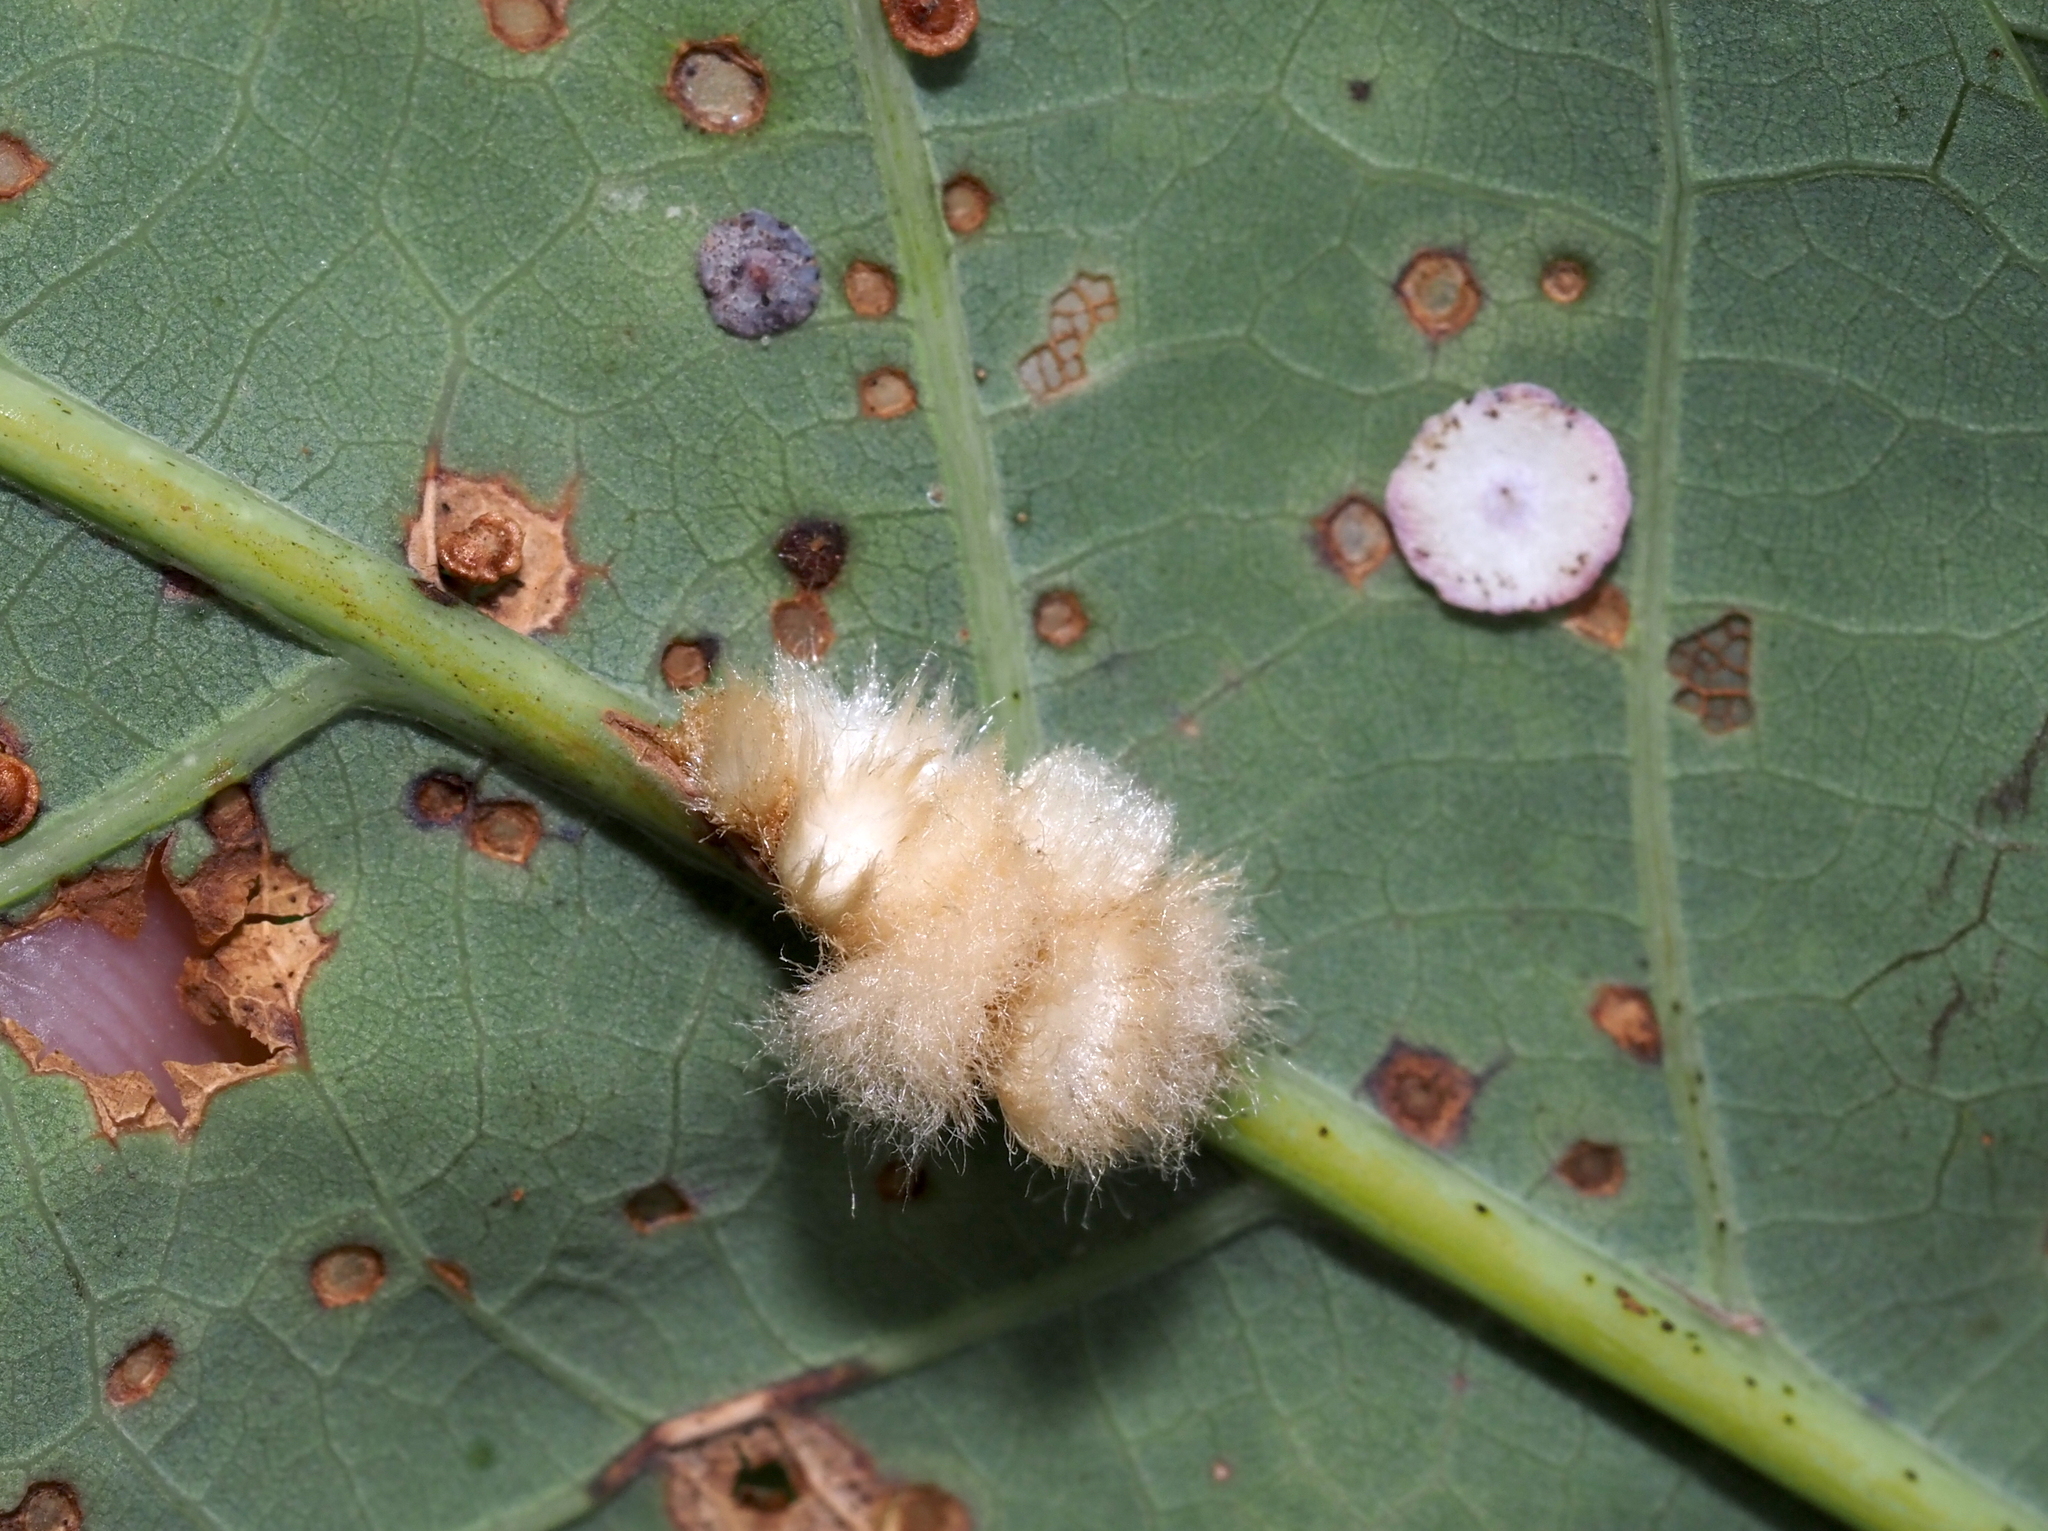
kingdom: Animalia
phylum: Arthropoda
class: Insecta
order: Hymenoptera
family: Cynipidae
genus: Andricus
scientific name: Andricus
